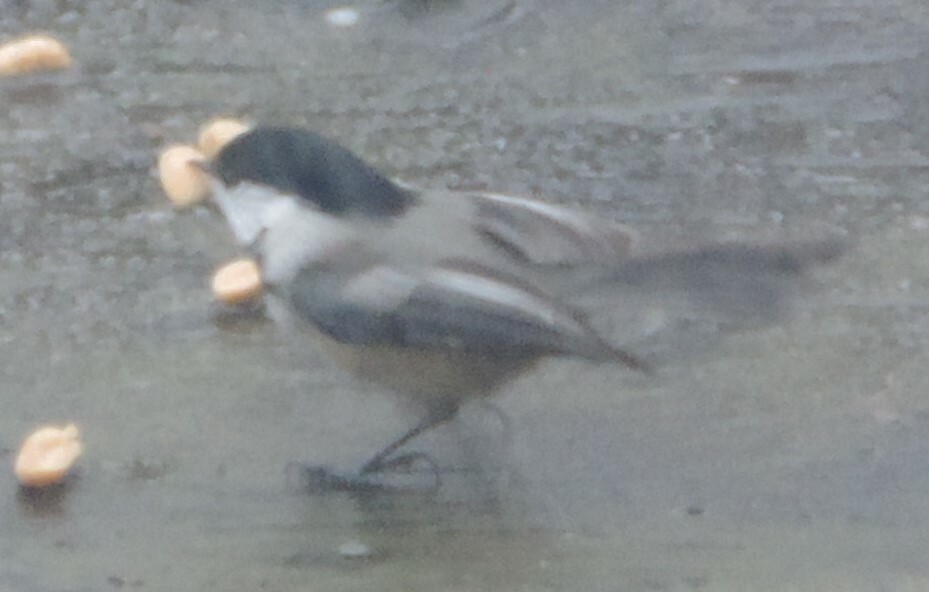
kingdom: Animalia
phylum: Chordata
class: Aves
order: Passeriformes
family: Paridae
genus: Poecile
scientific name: Poecile atricapillus
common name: Black-capped chickadee
